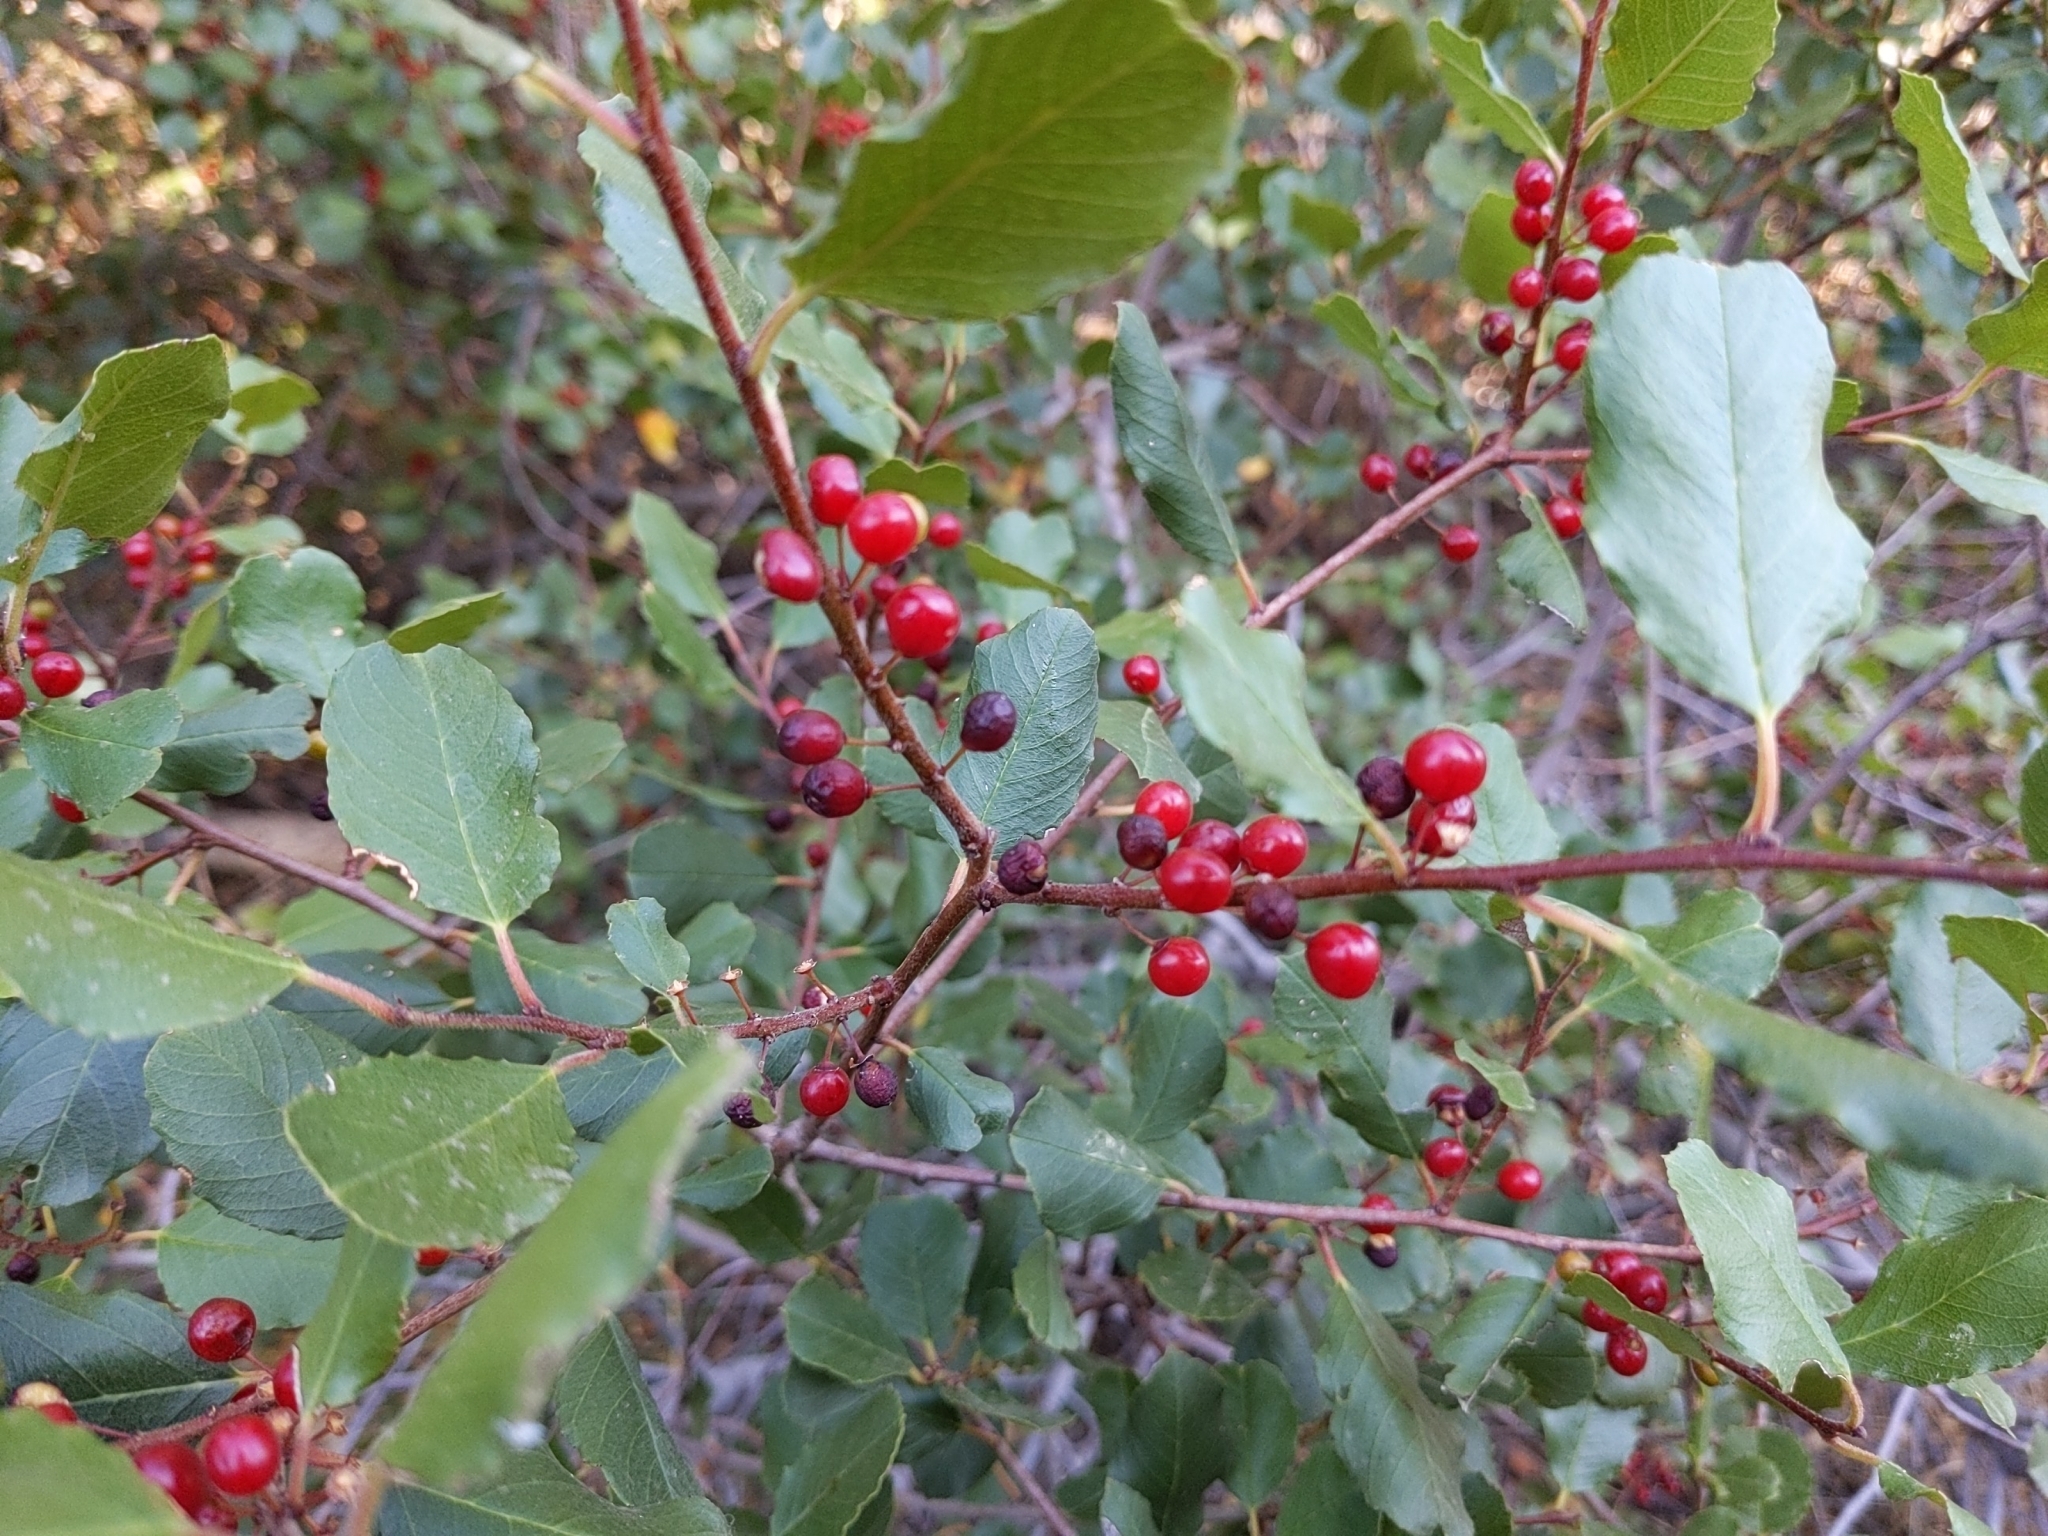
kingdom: Plantae
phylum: Tracheophyta
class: Magnoliopsida
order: Rosales
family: Rhamnaceae
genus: Endotropis
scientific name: Endotropis crocea
